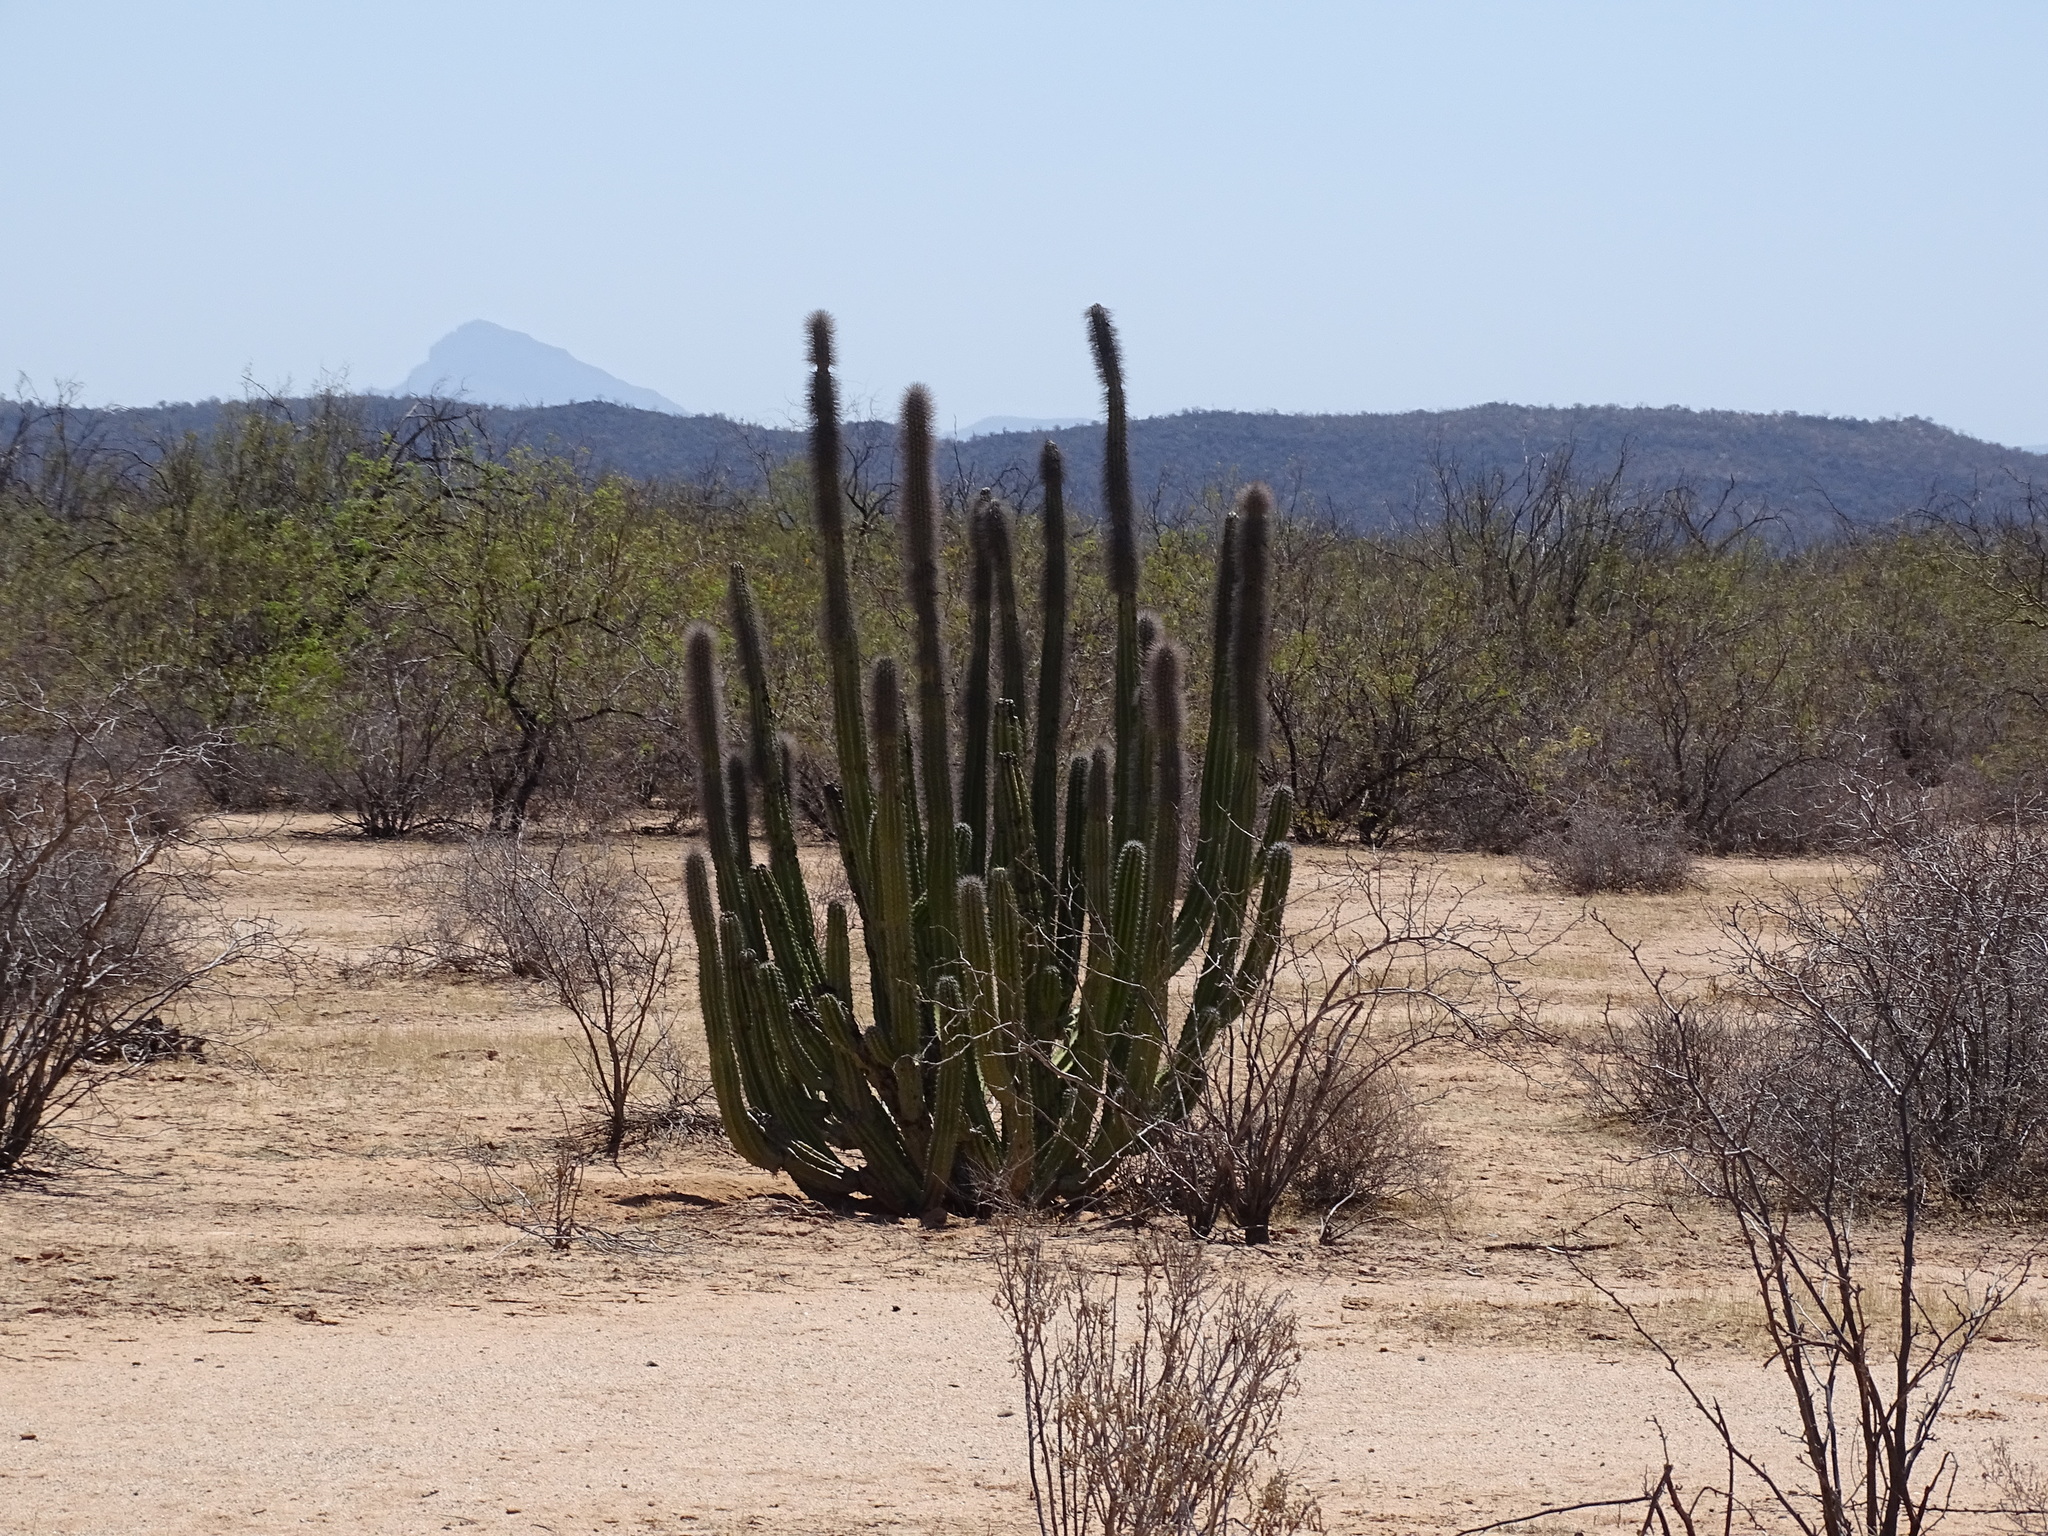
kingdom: Plantae
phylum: Tracheophyta
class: Magnoliopsida
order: Caryophyllales
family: Cactaceae
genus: Pachycereus
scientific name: Pachycereus schottii
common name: Senita cactus
